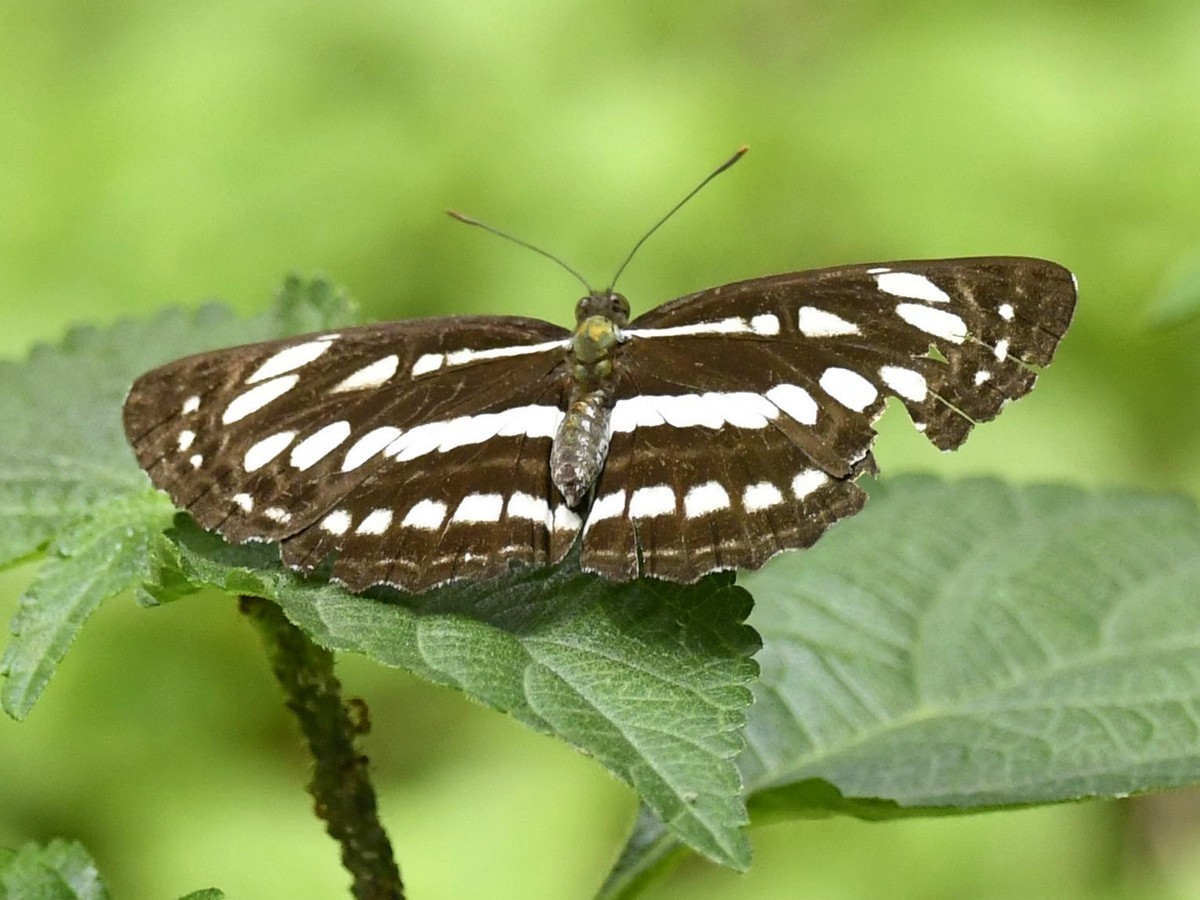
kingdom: Animalia
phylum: Arthropoda
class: Insecta
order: Lepidoptera
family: Nymphalidae
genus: Neptis
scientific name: Neptis hylas
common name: Common sailer
